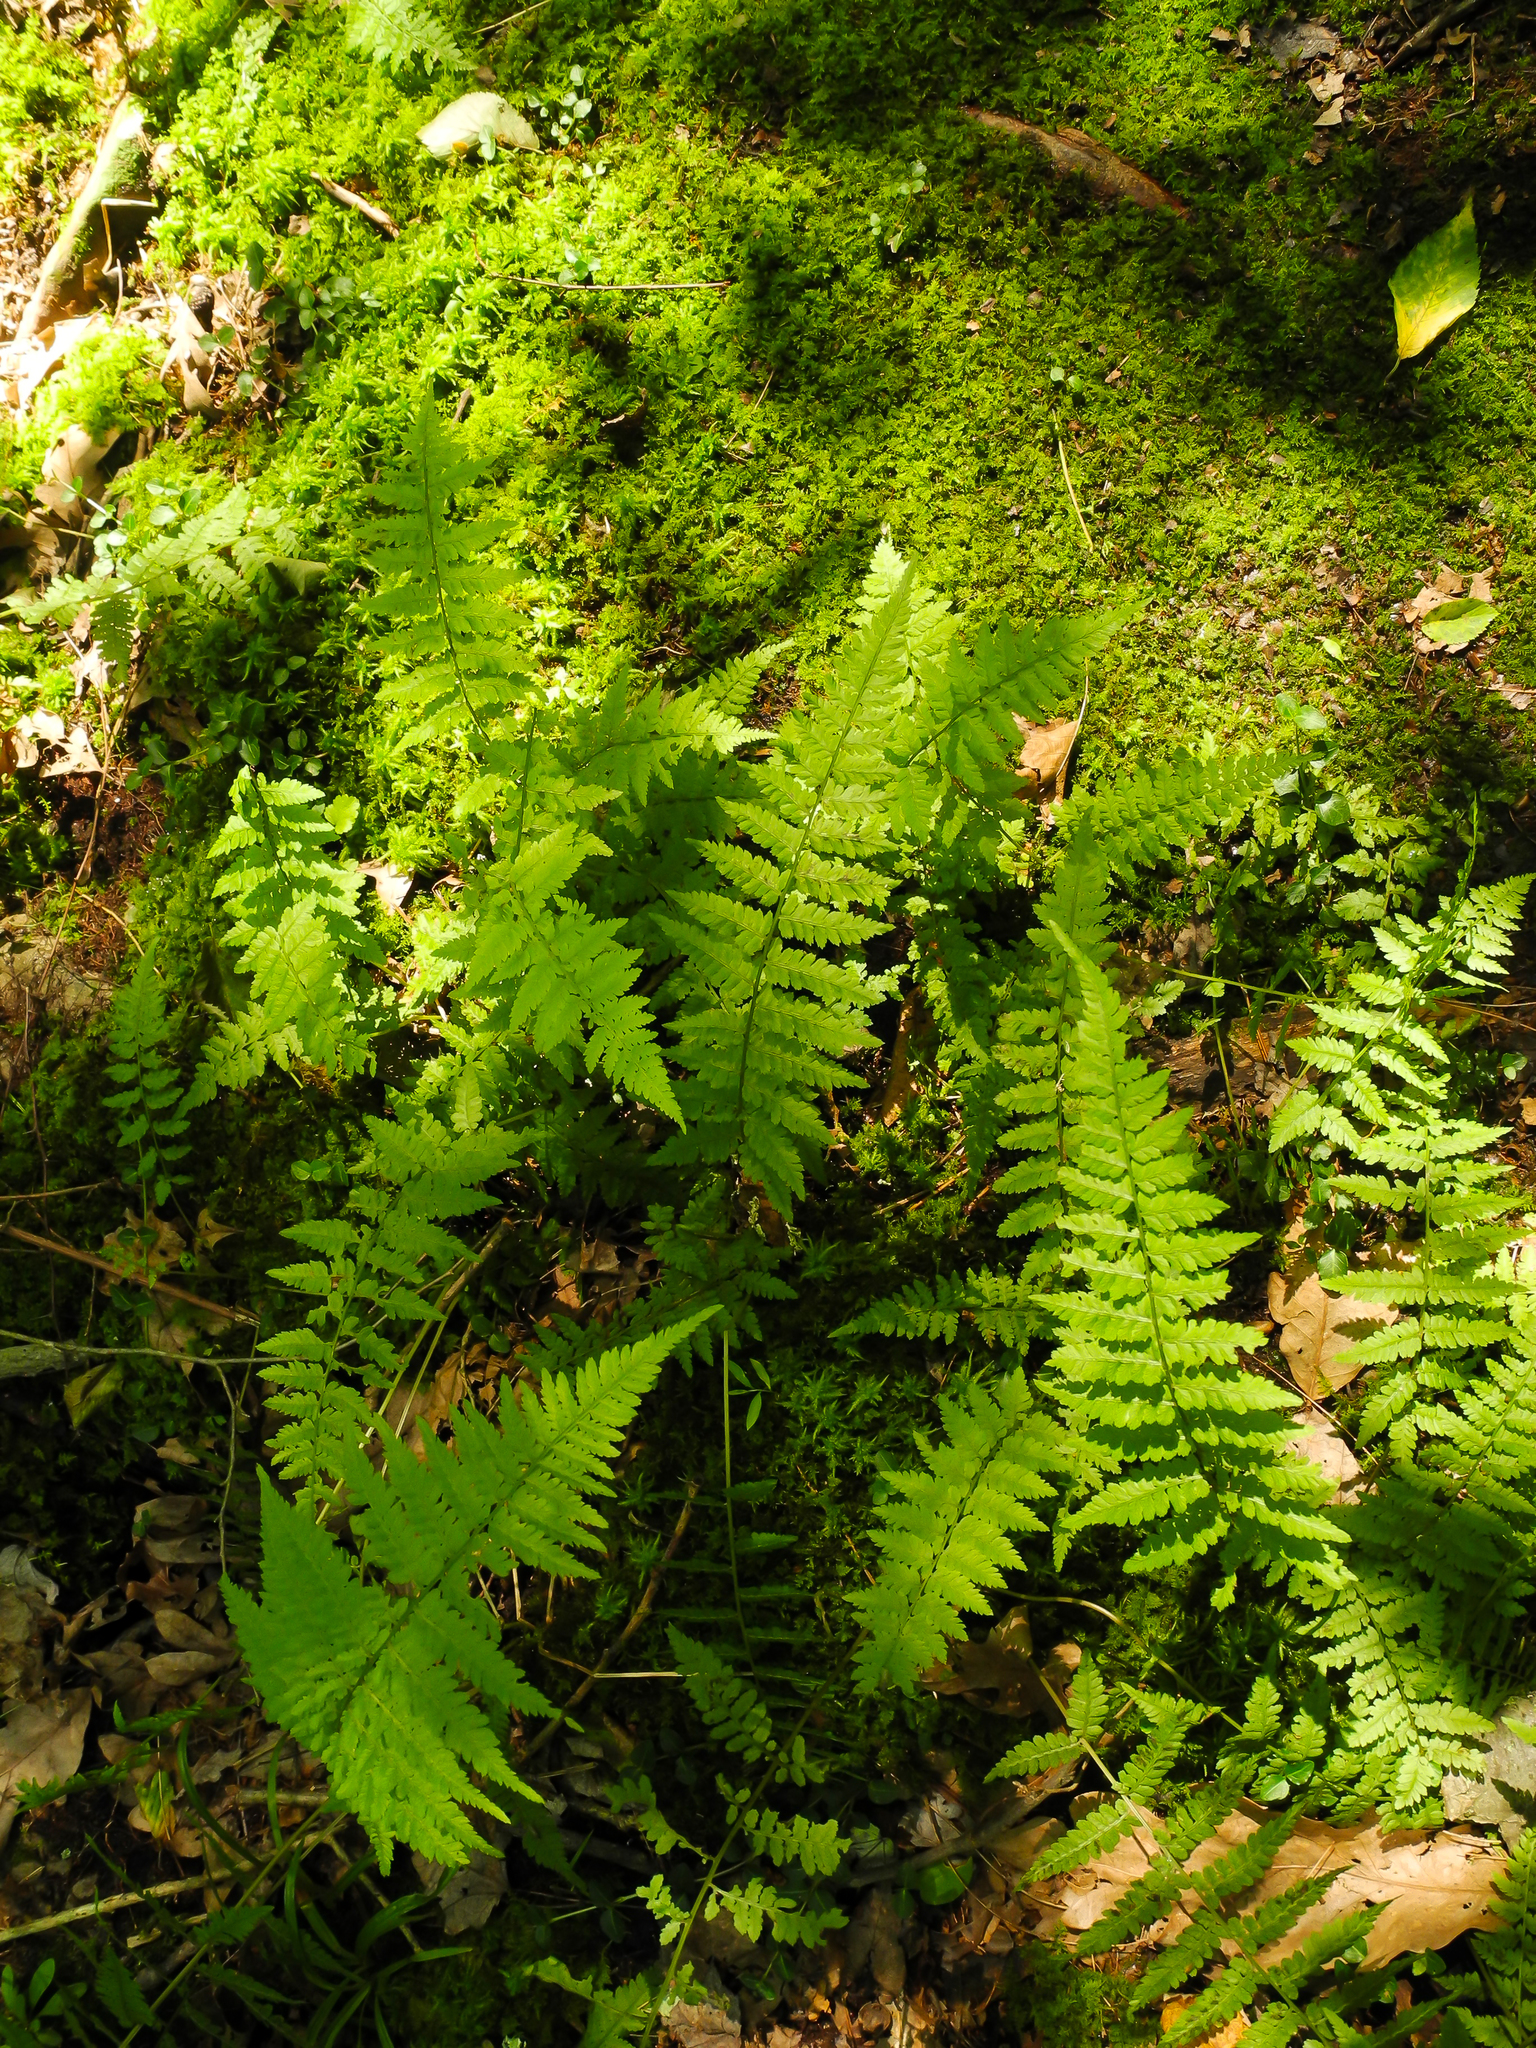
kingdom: Plantae
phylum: Tracheophyta
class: Polypodiopsida
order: Polypodiales
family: Athyriaceae
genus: Athyrium
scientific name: Athyrium angustum
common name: Northern lady fern
